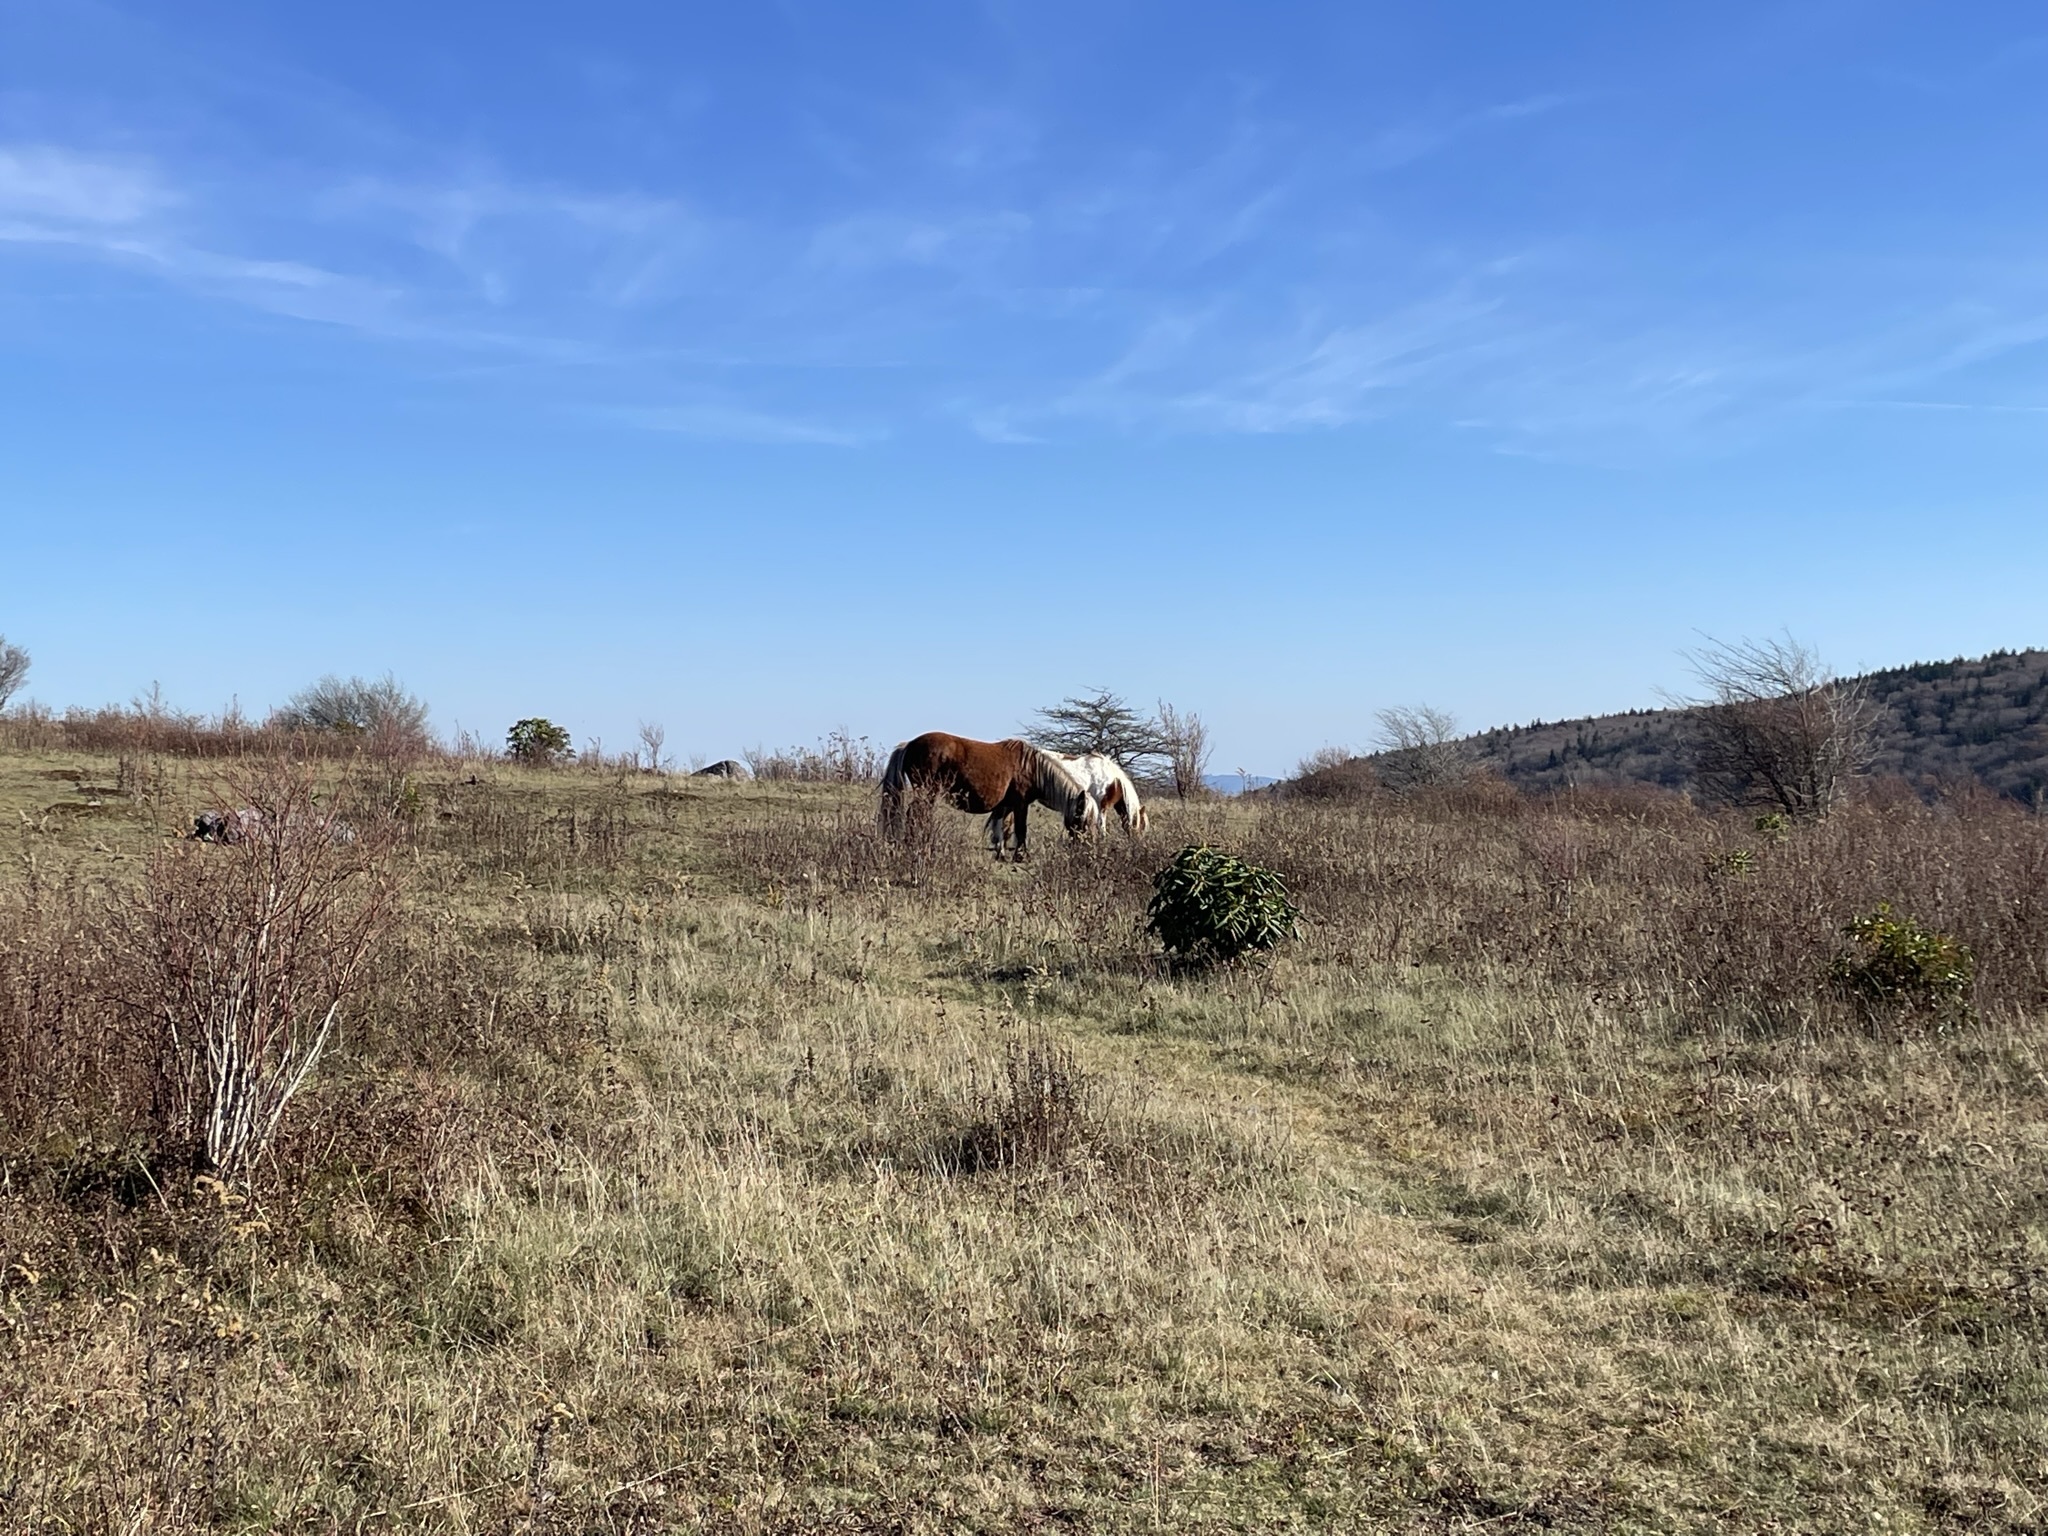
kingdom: Animalia
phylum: Chordata
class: Mammalia
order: Perissodactyla
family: Equidae
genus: Equus
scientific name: Equus caballus
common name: Horse
